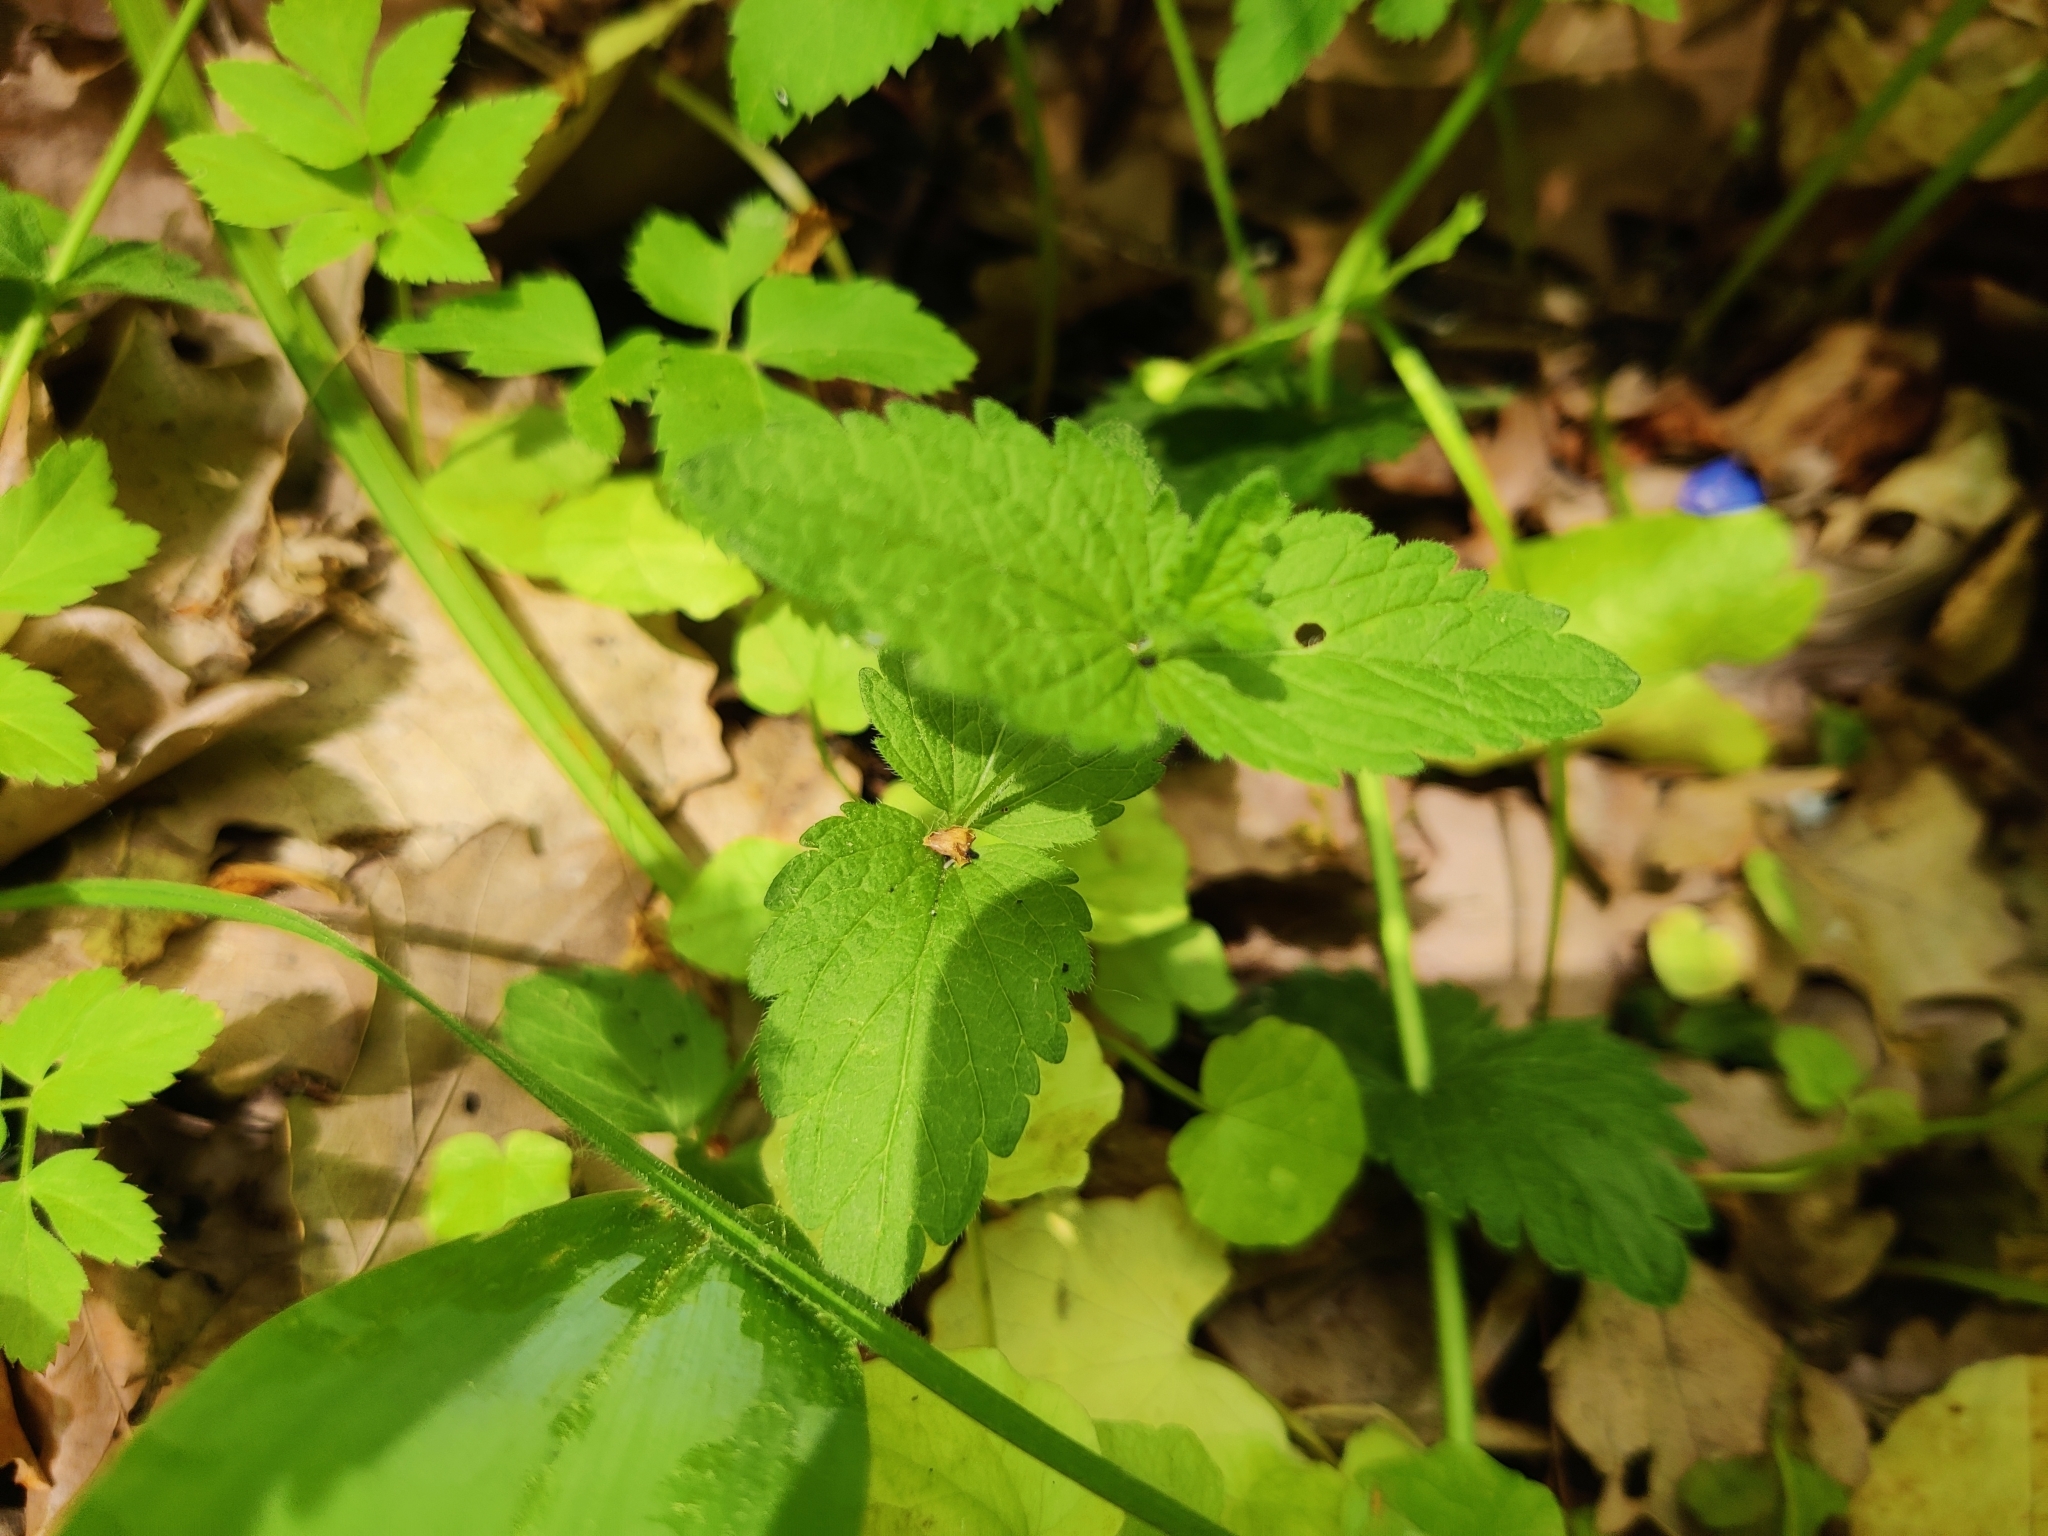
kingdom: Plantae
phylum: Tracheophyta
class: Magnoliopsida
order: Lamiales
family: Plantaginaceae
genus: Veronica
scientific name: Veronica chamaedrys
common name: Germander speedwell
